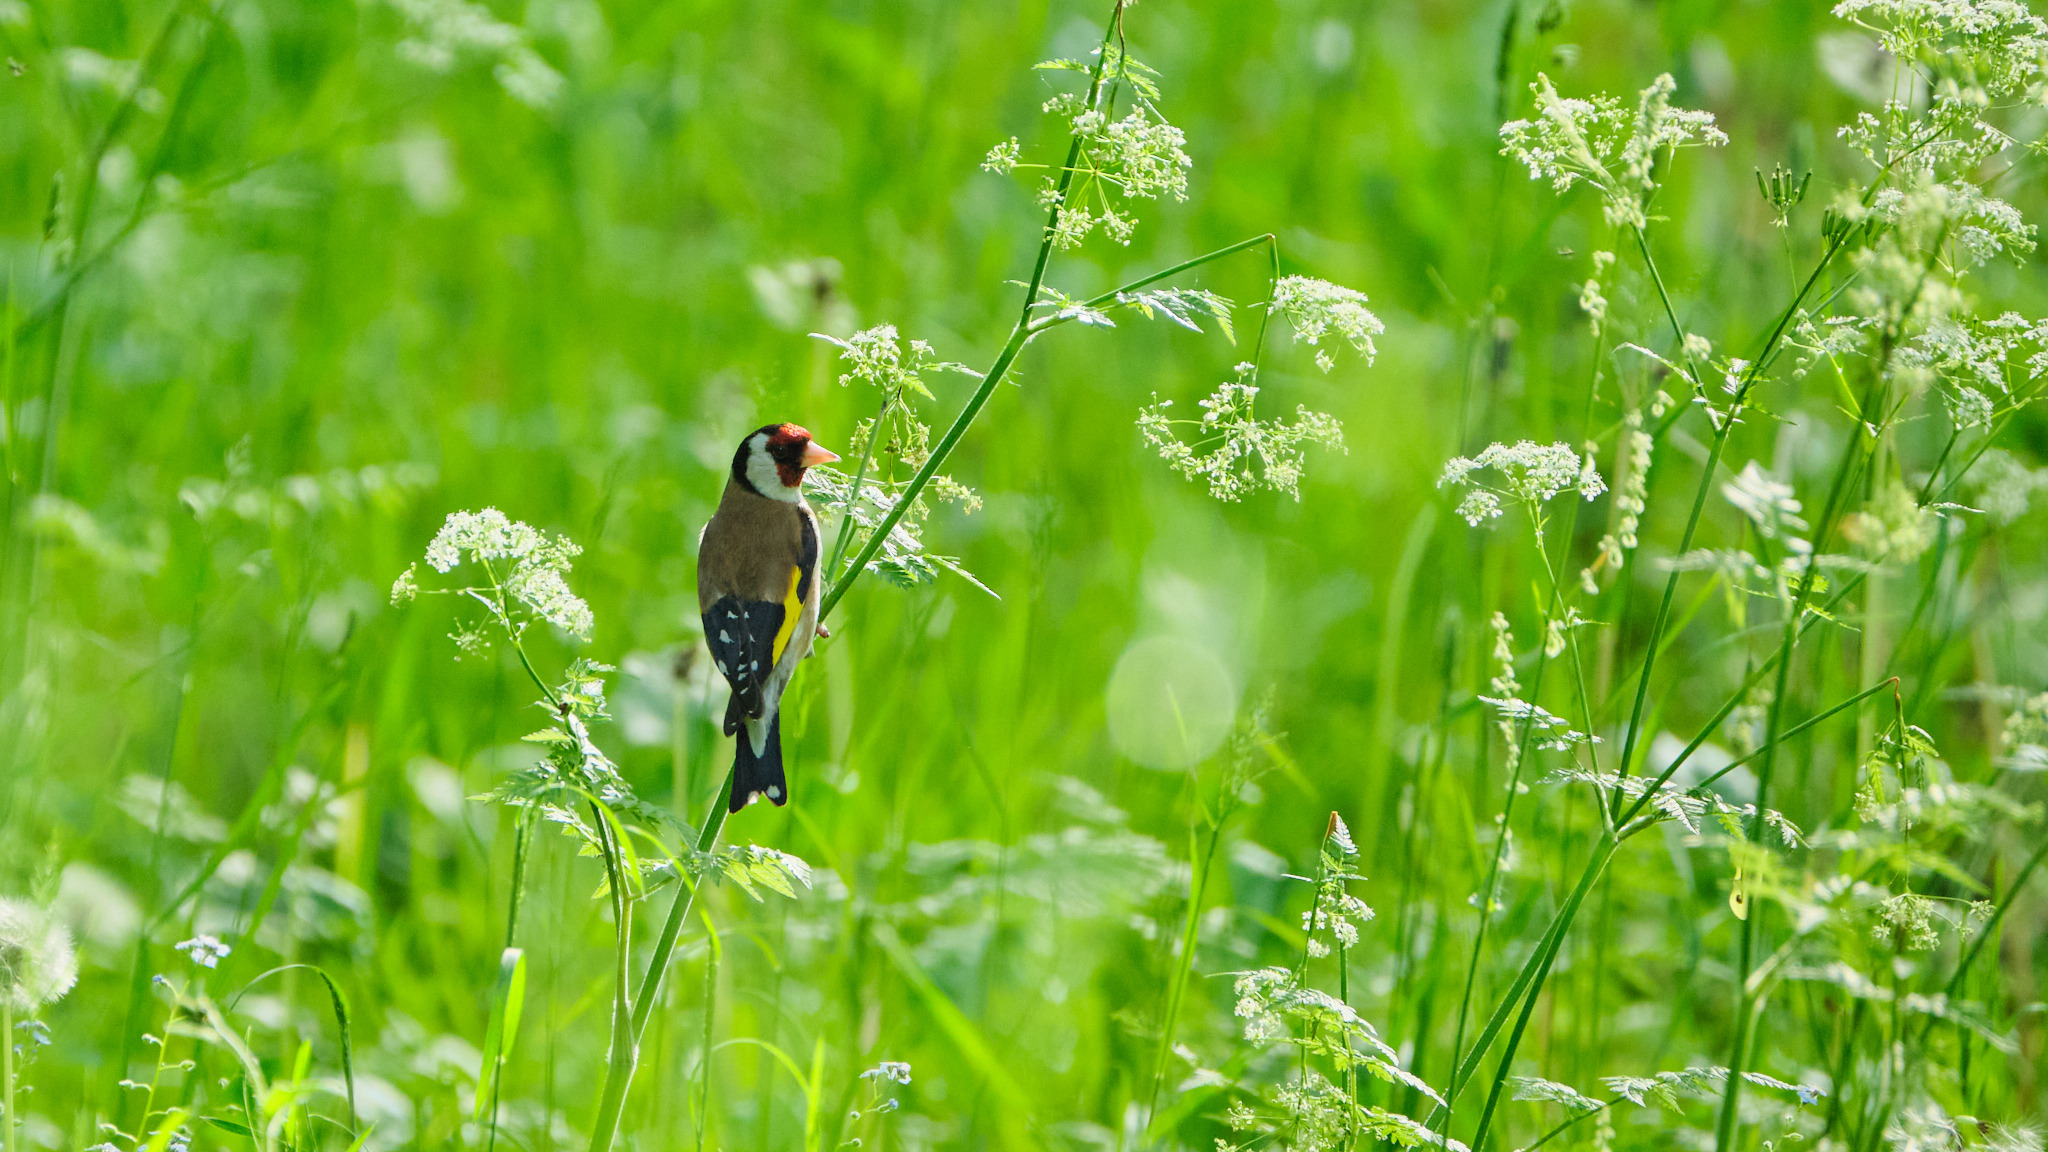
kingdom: Animalia
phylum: Chordata
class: Aves
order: Passeriformes
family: Fringillidae
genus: Carduelis
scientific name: Carduelis carduelis
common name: European goldfinch
